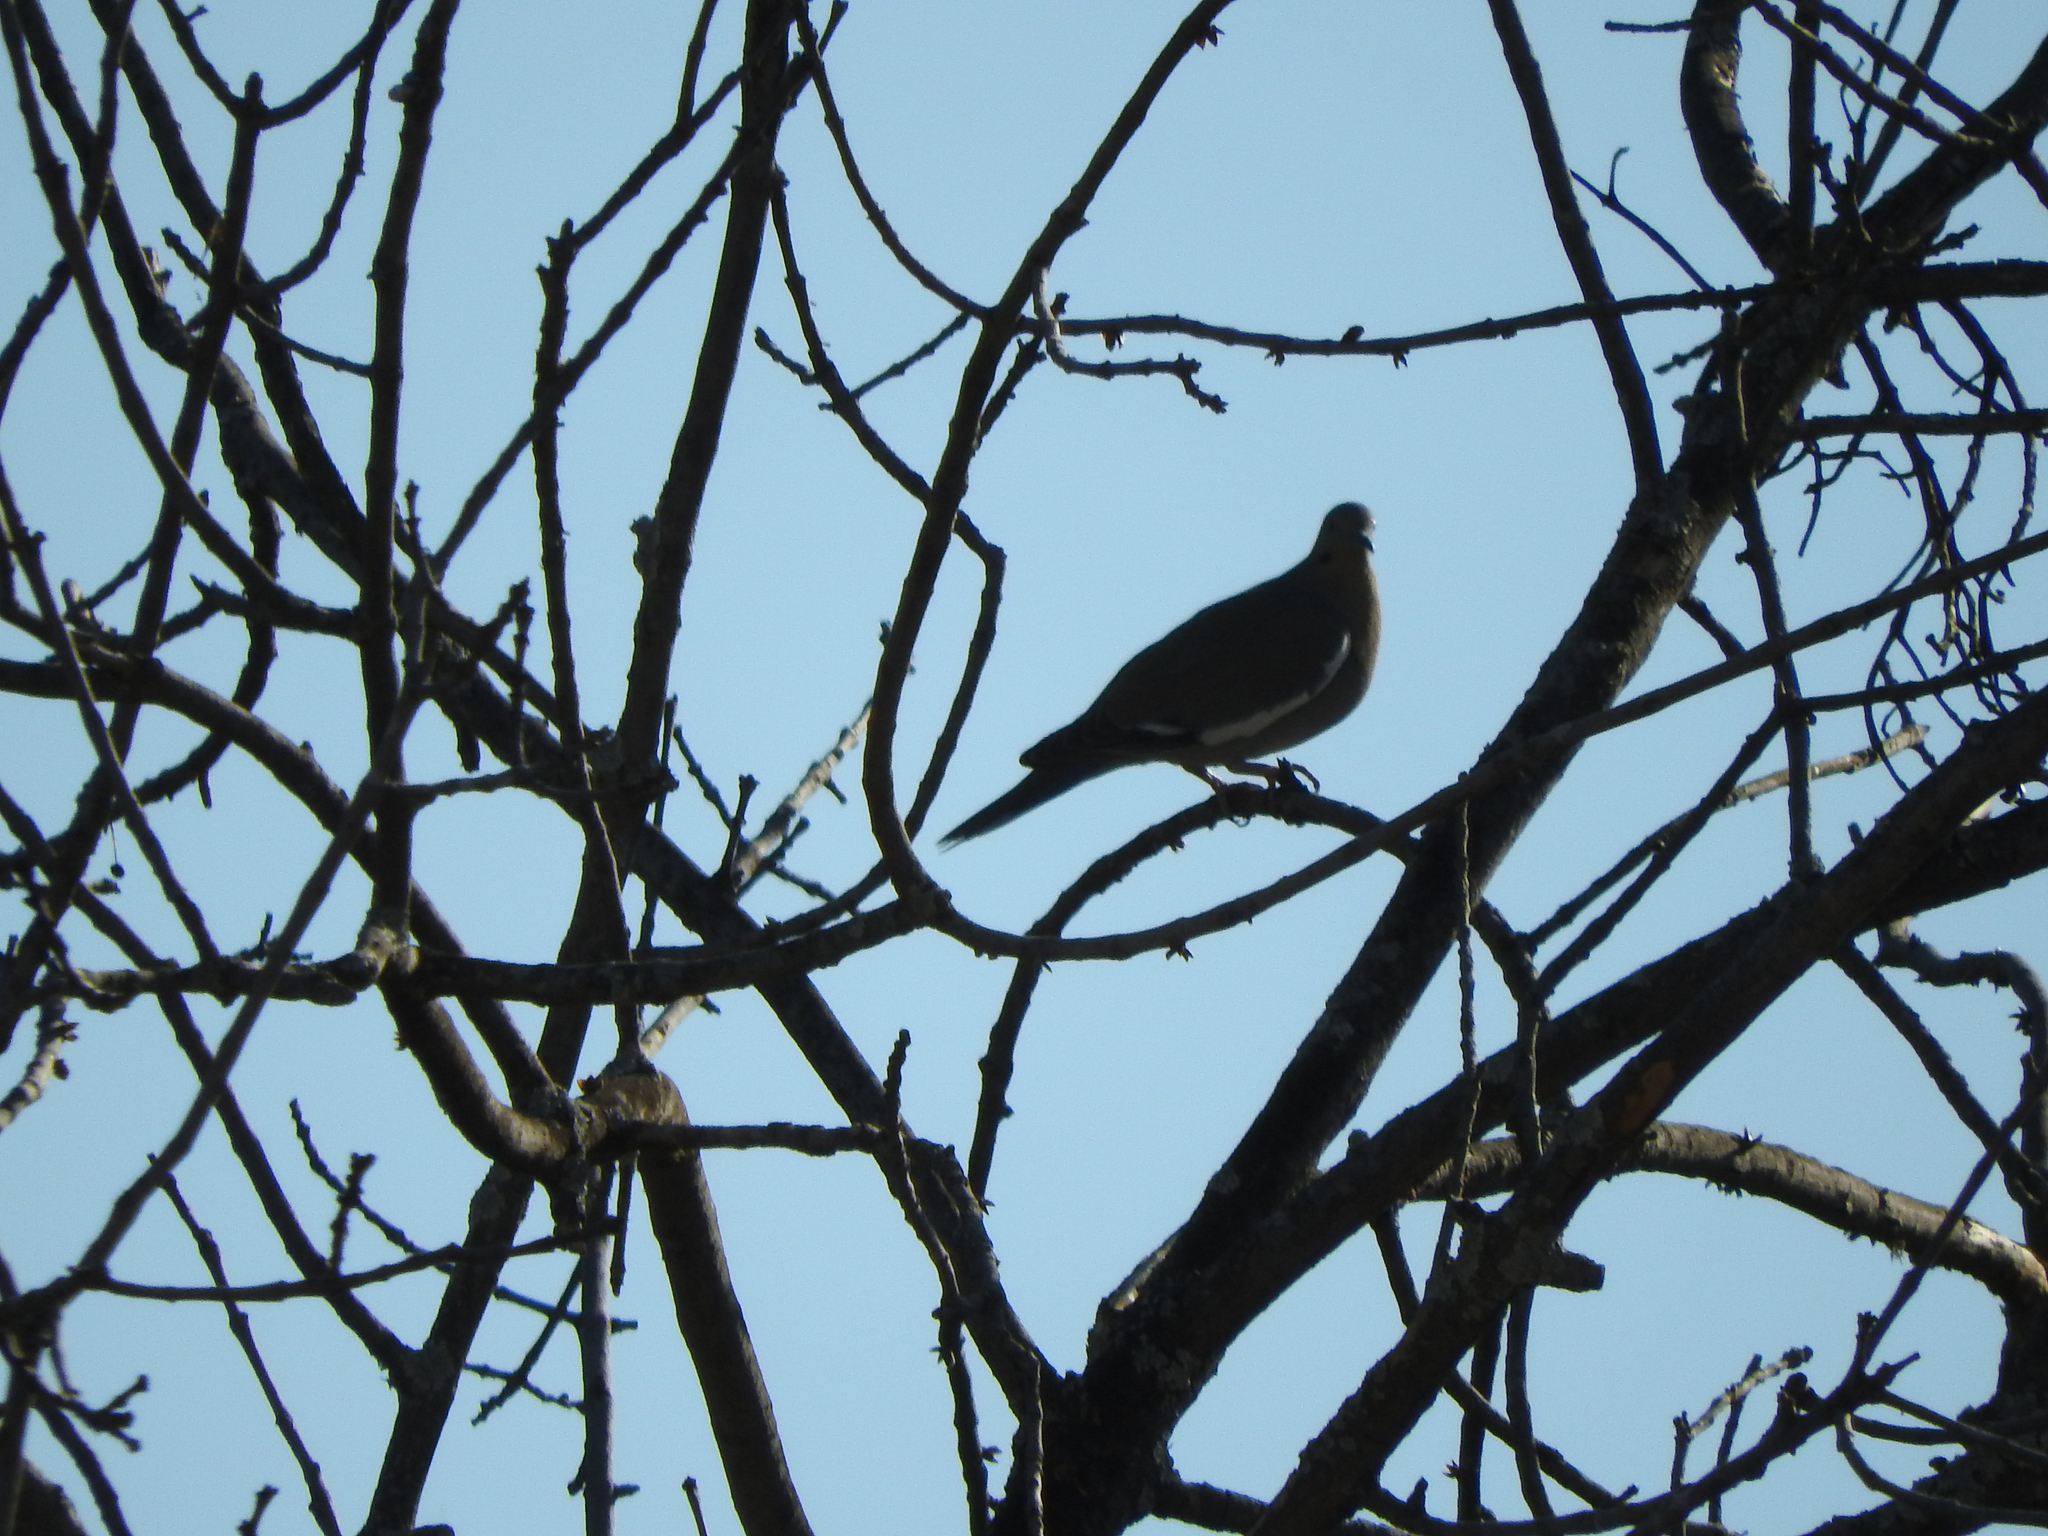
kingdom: Animalia
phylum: Chordata
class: Aves
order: Columbiformes
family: Columbidae
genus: Zenaida
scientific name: Zenaida asiatica
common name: White-winged dove
